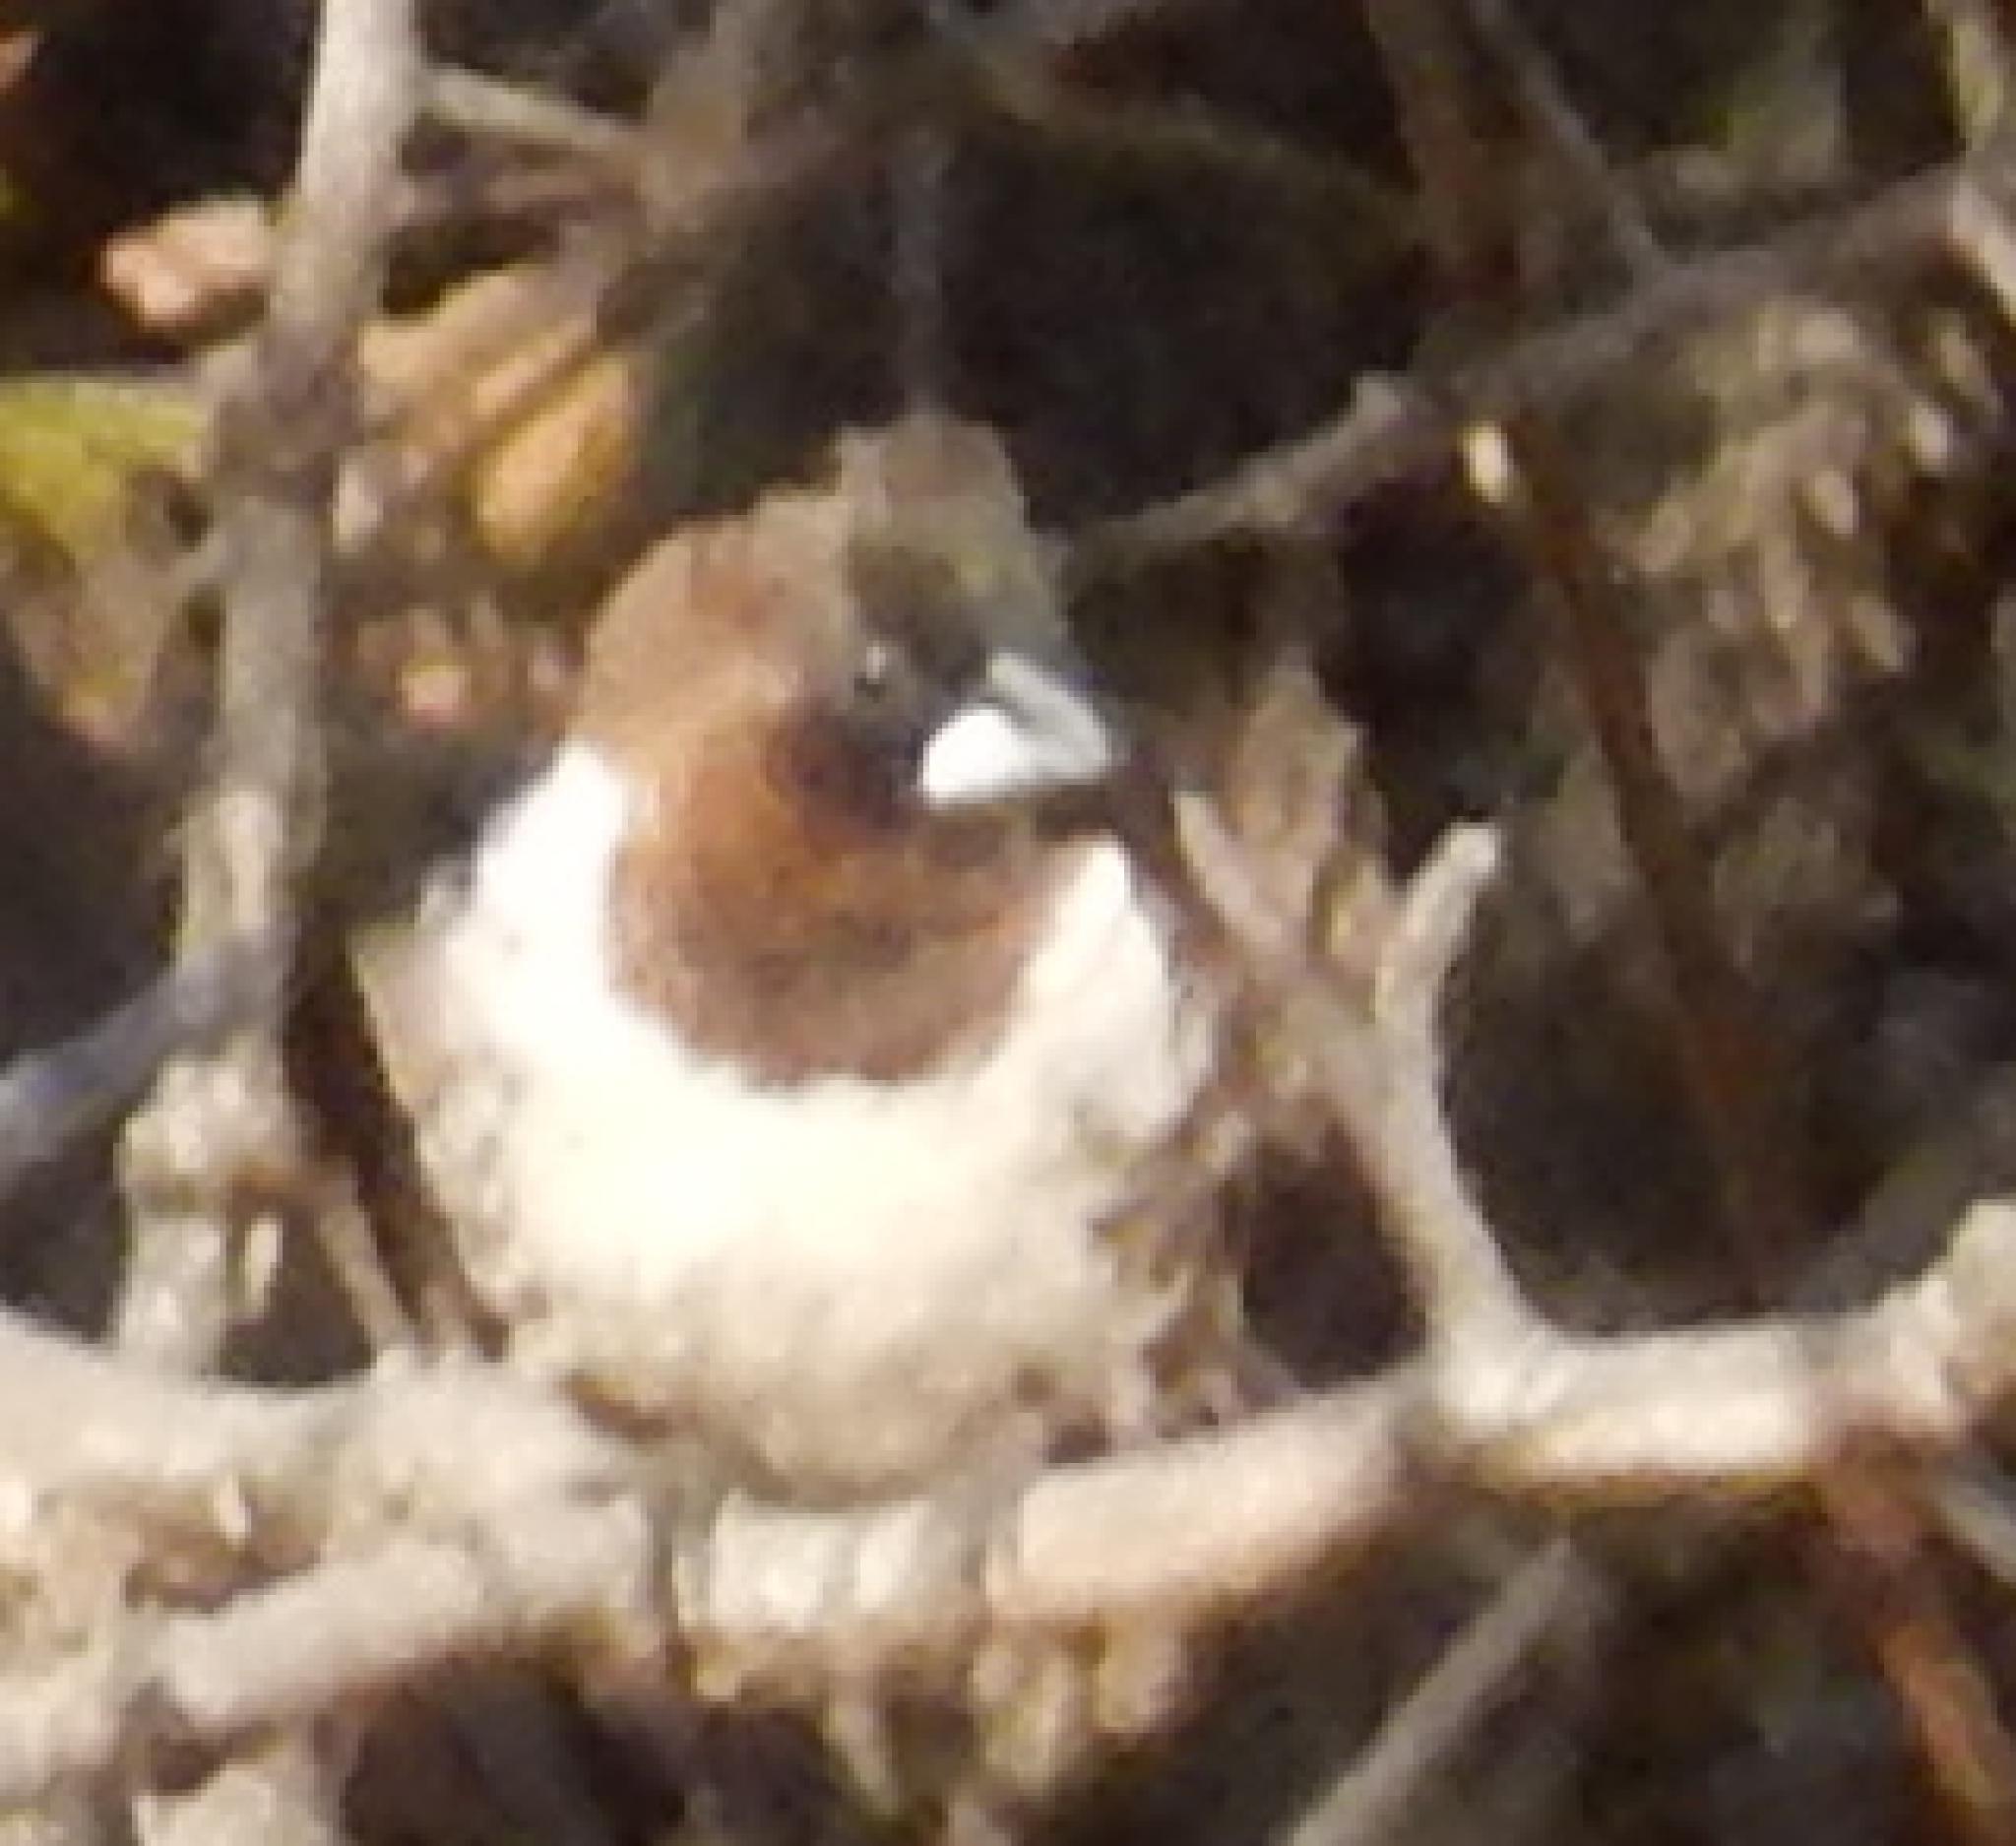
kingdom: Animalia
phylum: Chordata
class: Aves
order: Passeriformes
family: Estrildidae
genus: Lonchura
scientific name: Lonchura cucullata
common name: Bronze mannikin
